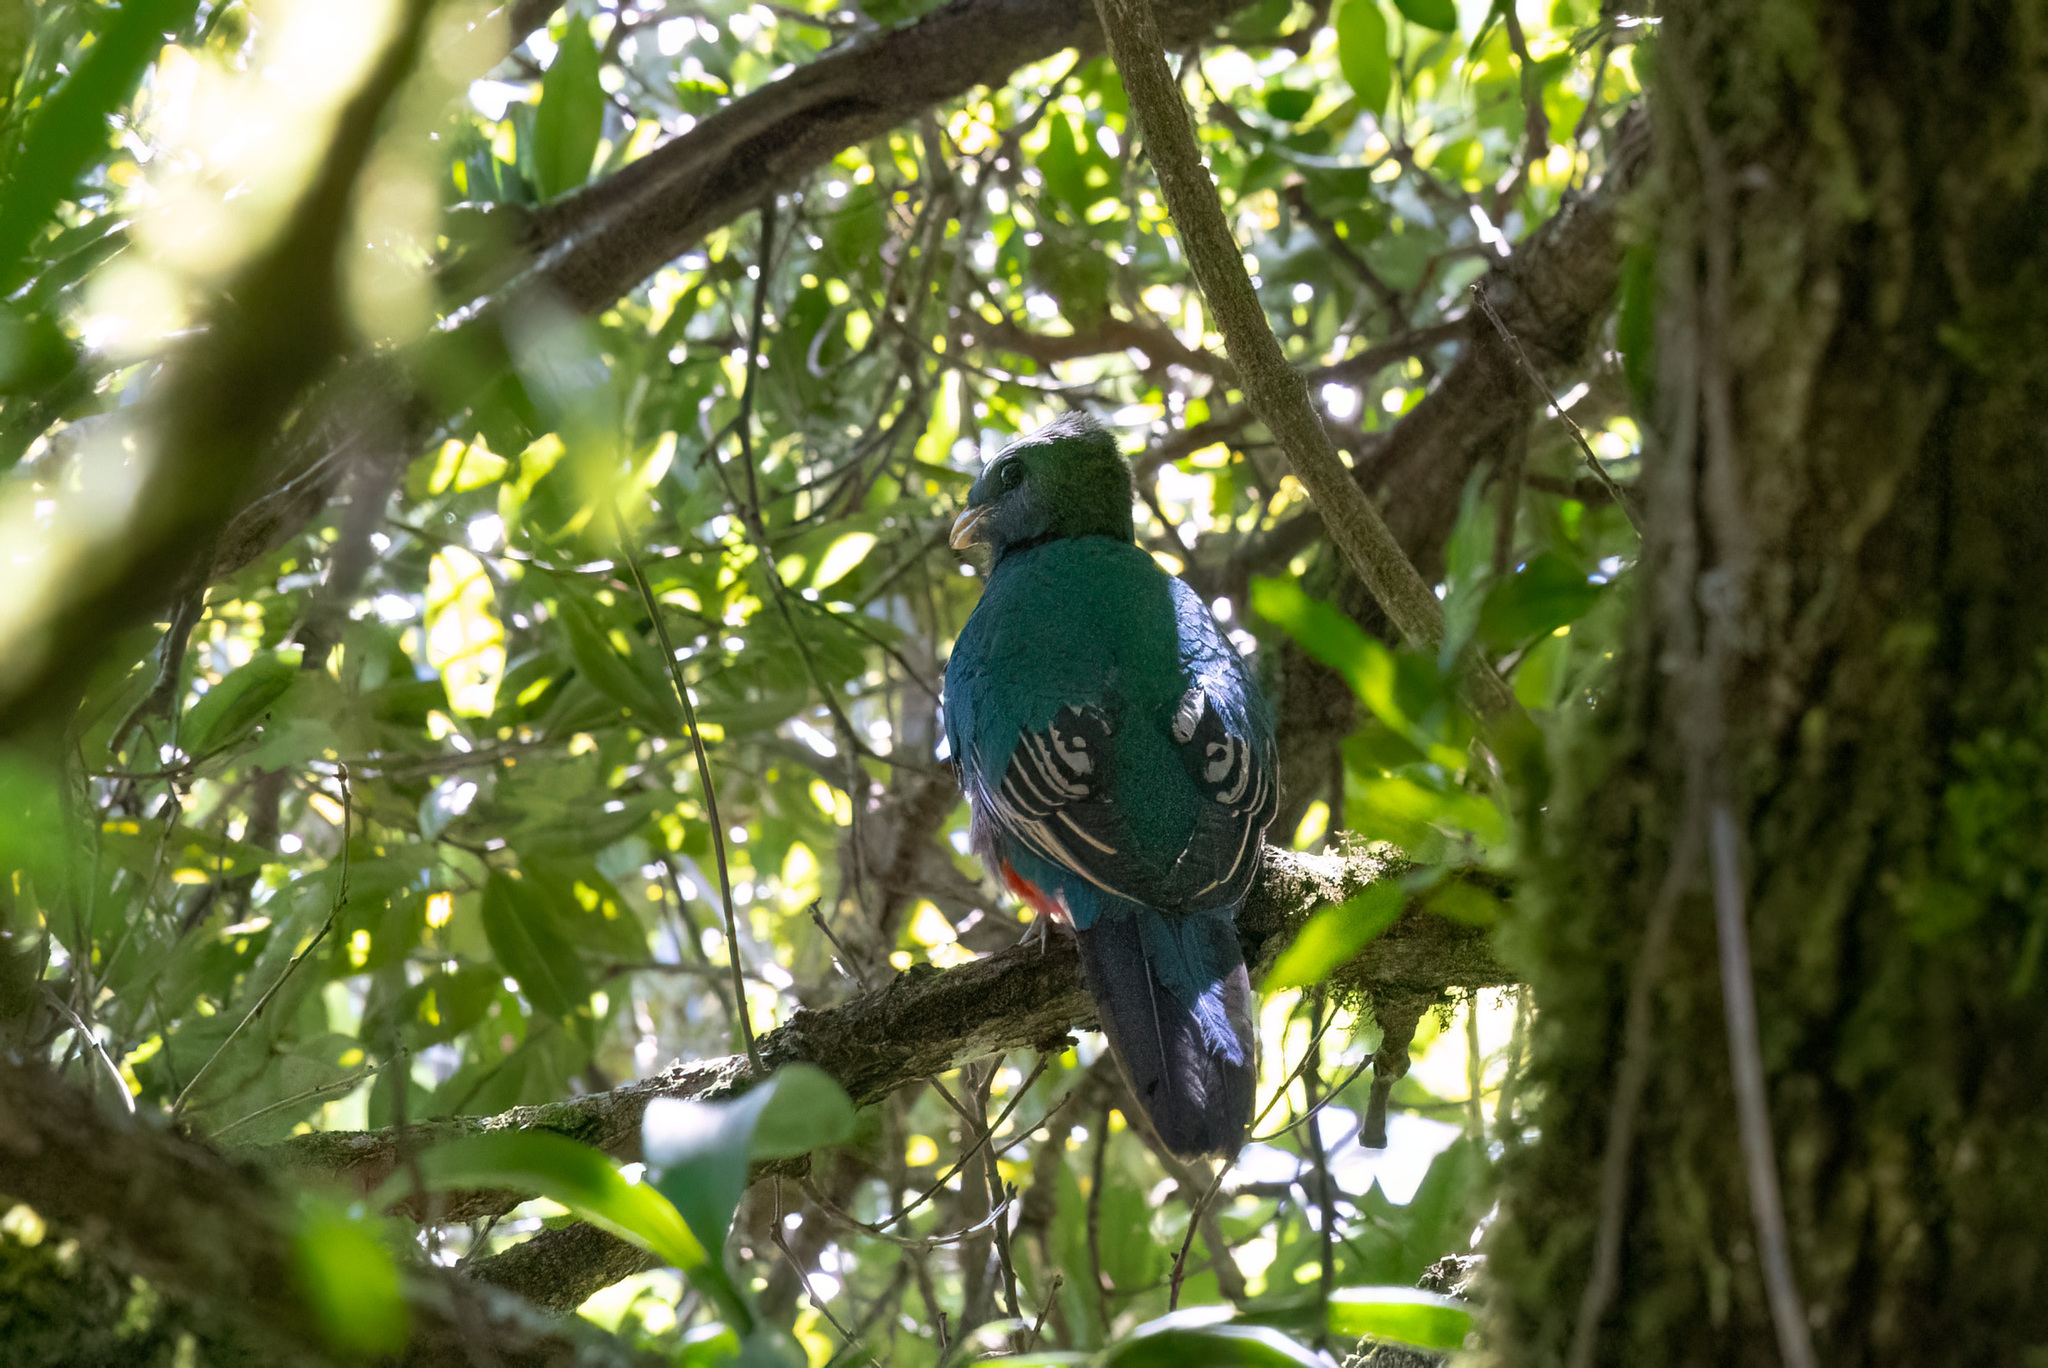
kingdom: Animalia
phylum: Chordata
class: Aves
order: Trogoniformes
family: Trogonidae
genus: Pharomachrus
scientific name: Pharomachrus mocinno
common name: Resplendent quetzal
